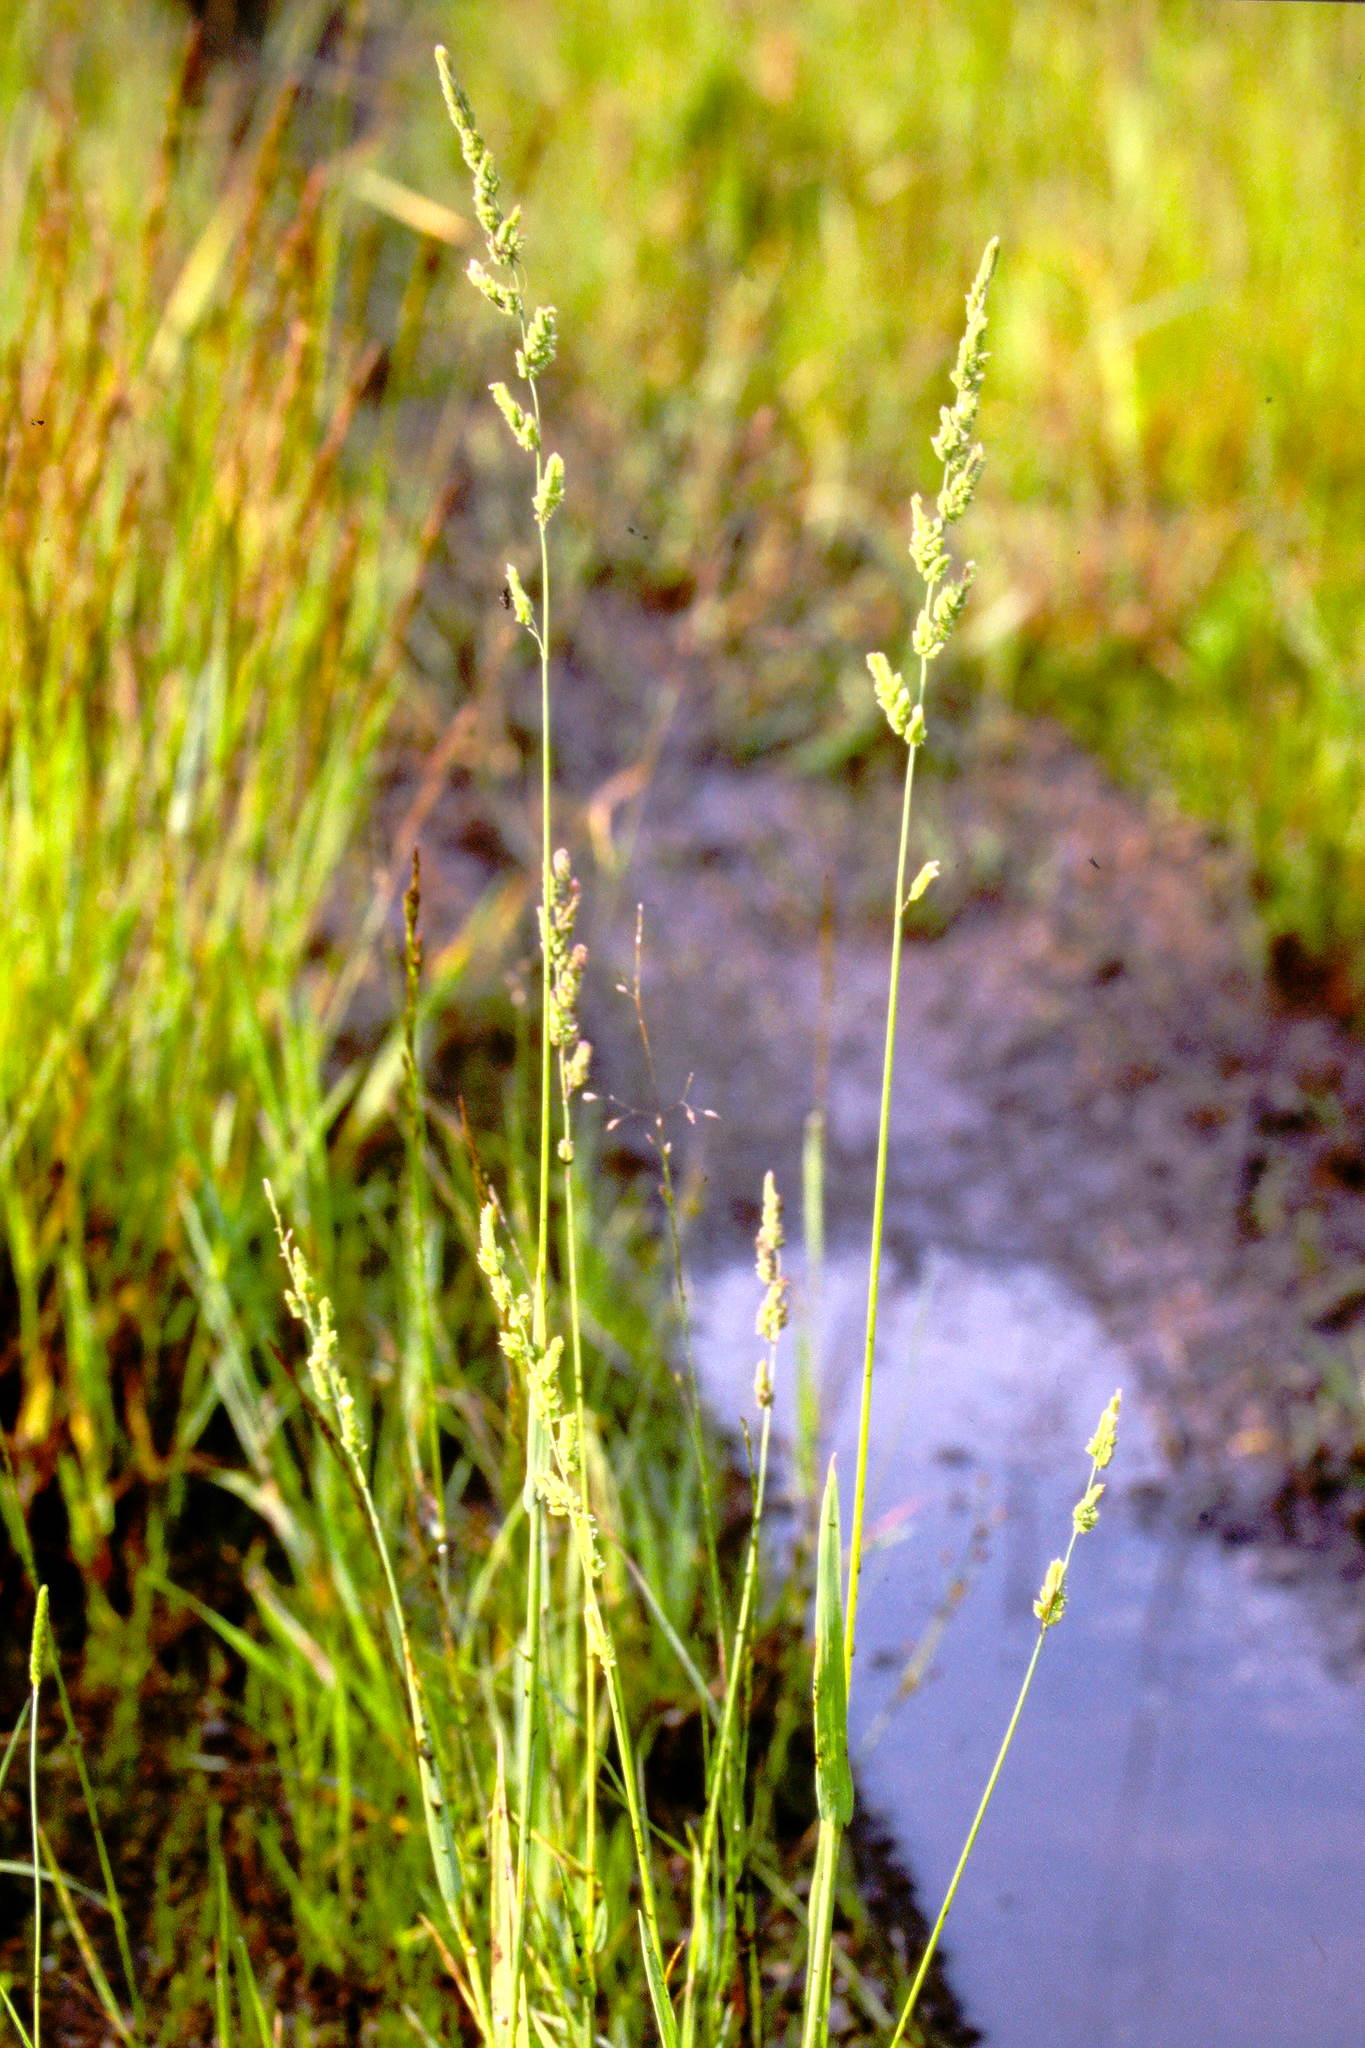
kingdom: Plantae
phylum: Tracheophyta
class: Liliopsida
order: Poales
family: Poaceae
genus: Beckmannia
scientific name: Beckmannia syzigachne
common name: American slough-grass
